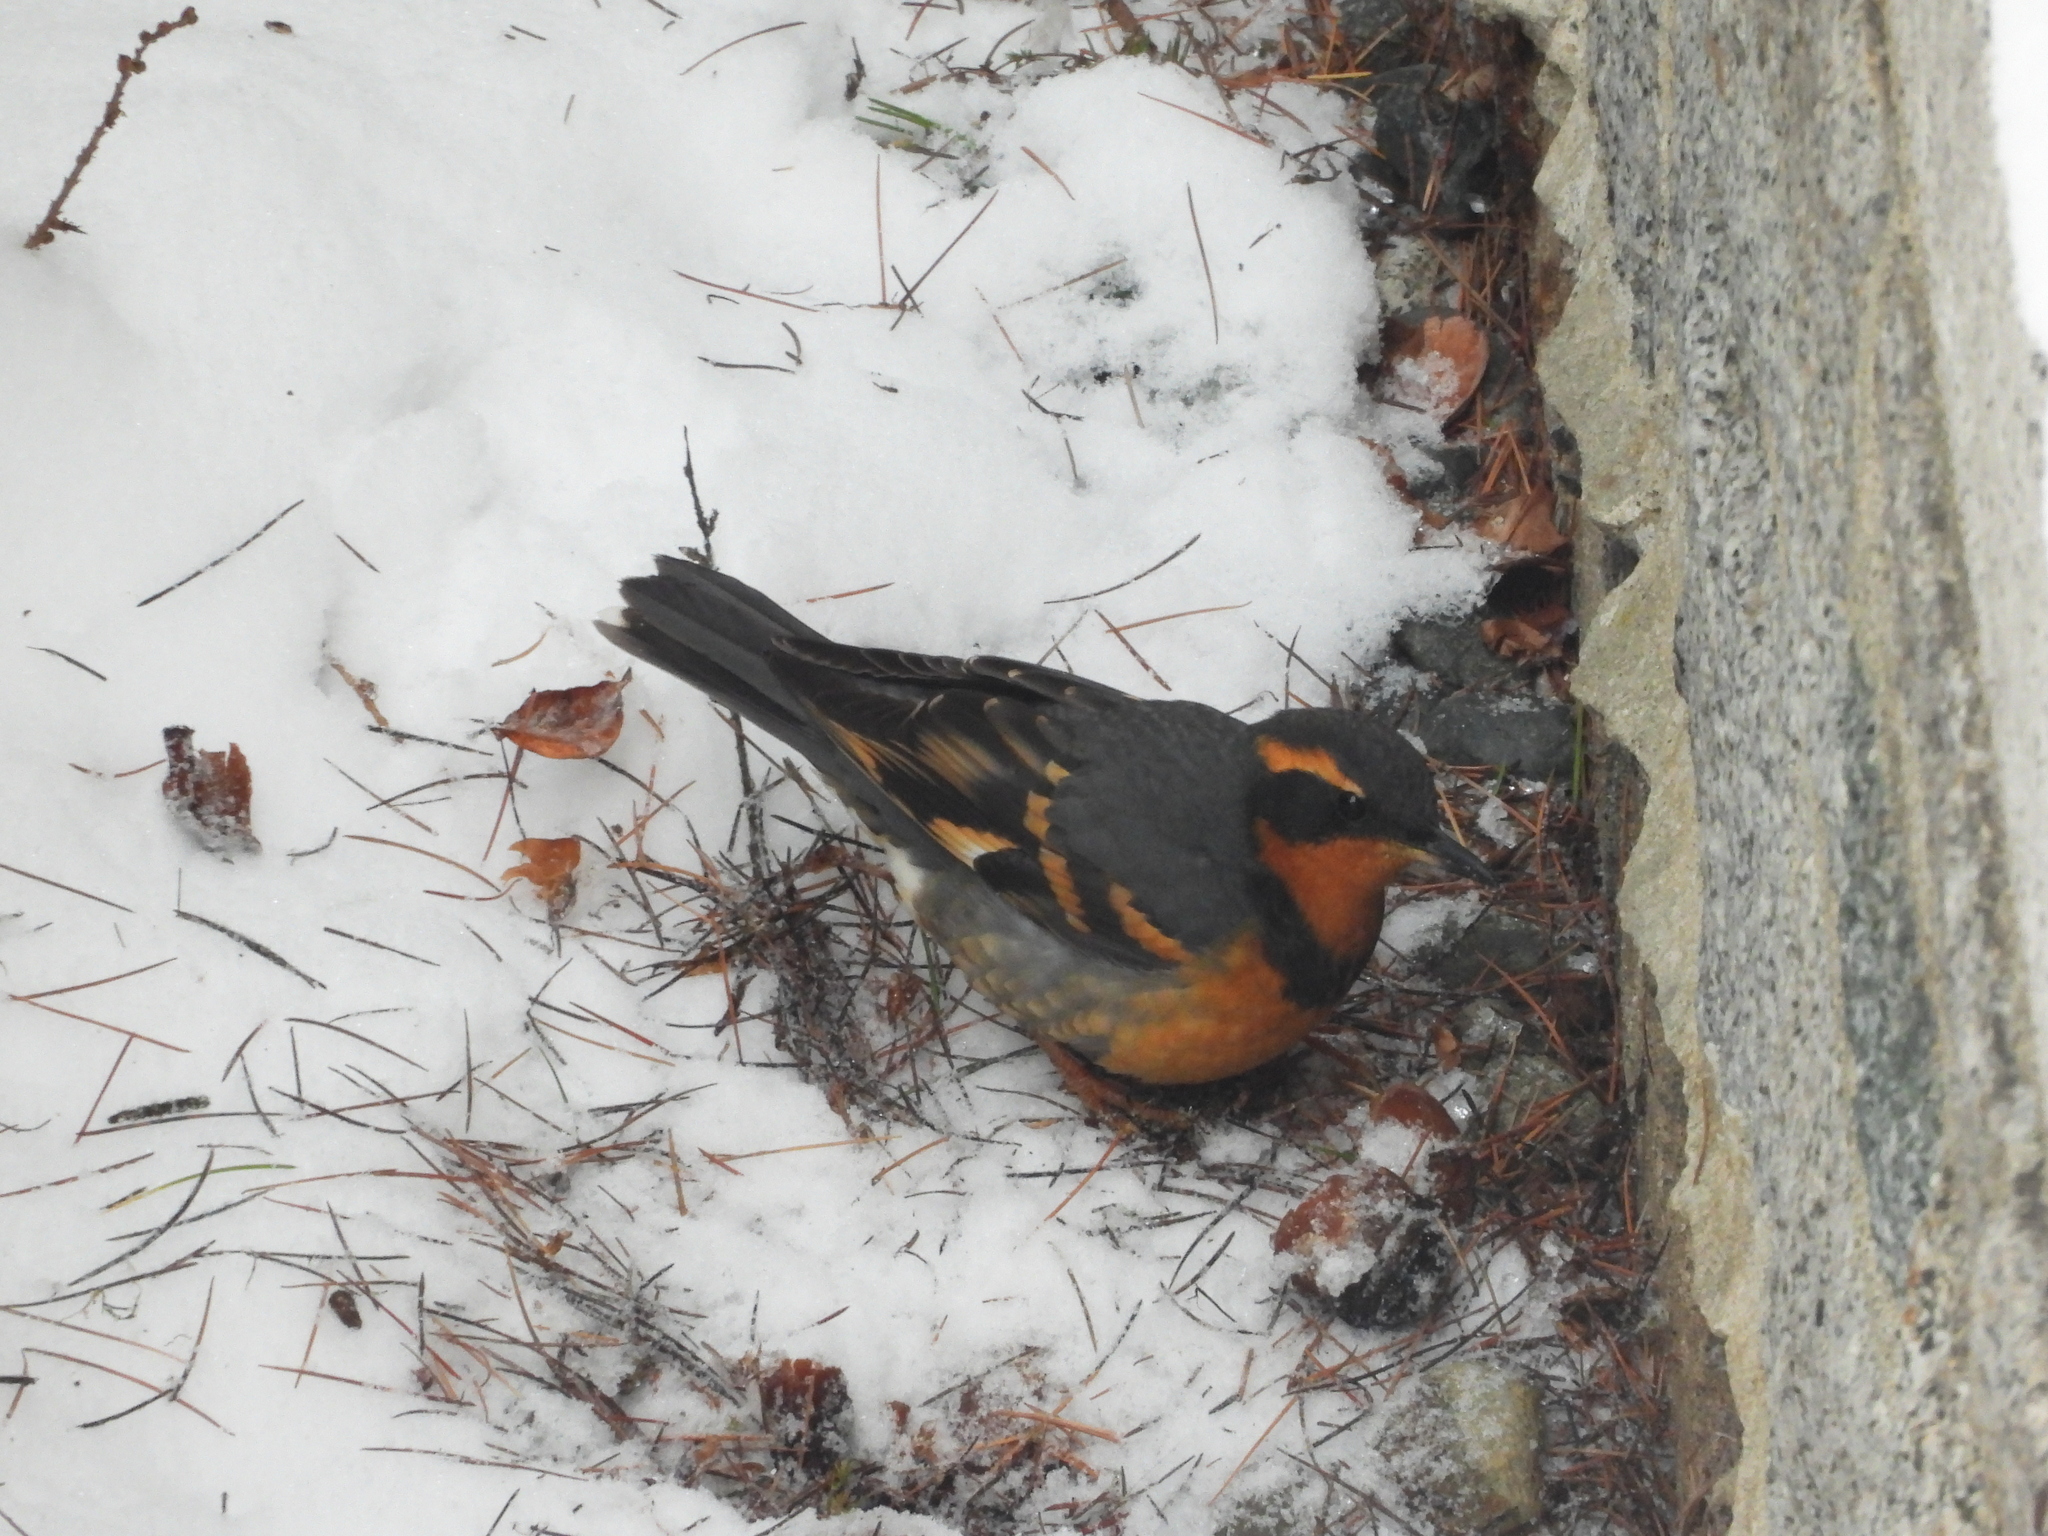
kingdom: Animalia
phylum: Chordata
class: Aves
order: Passeriformes
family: Turdidae
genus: Ixoreus
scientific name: Ixoreus naevius
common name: Varied thrush
